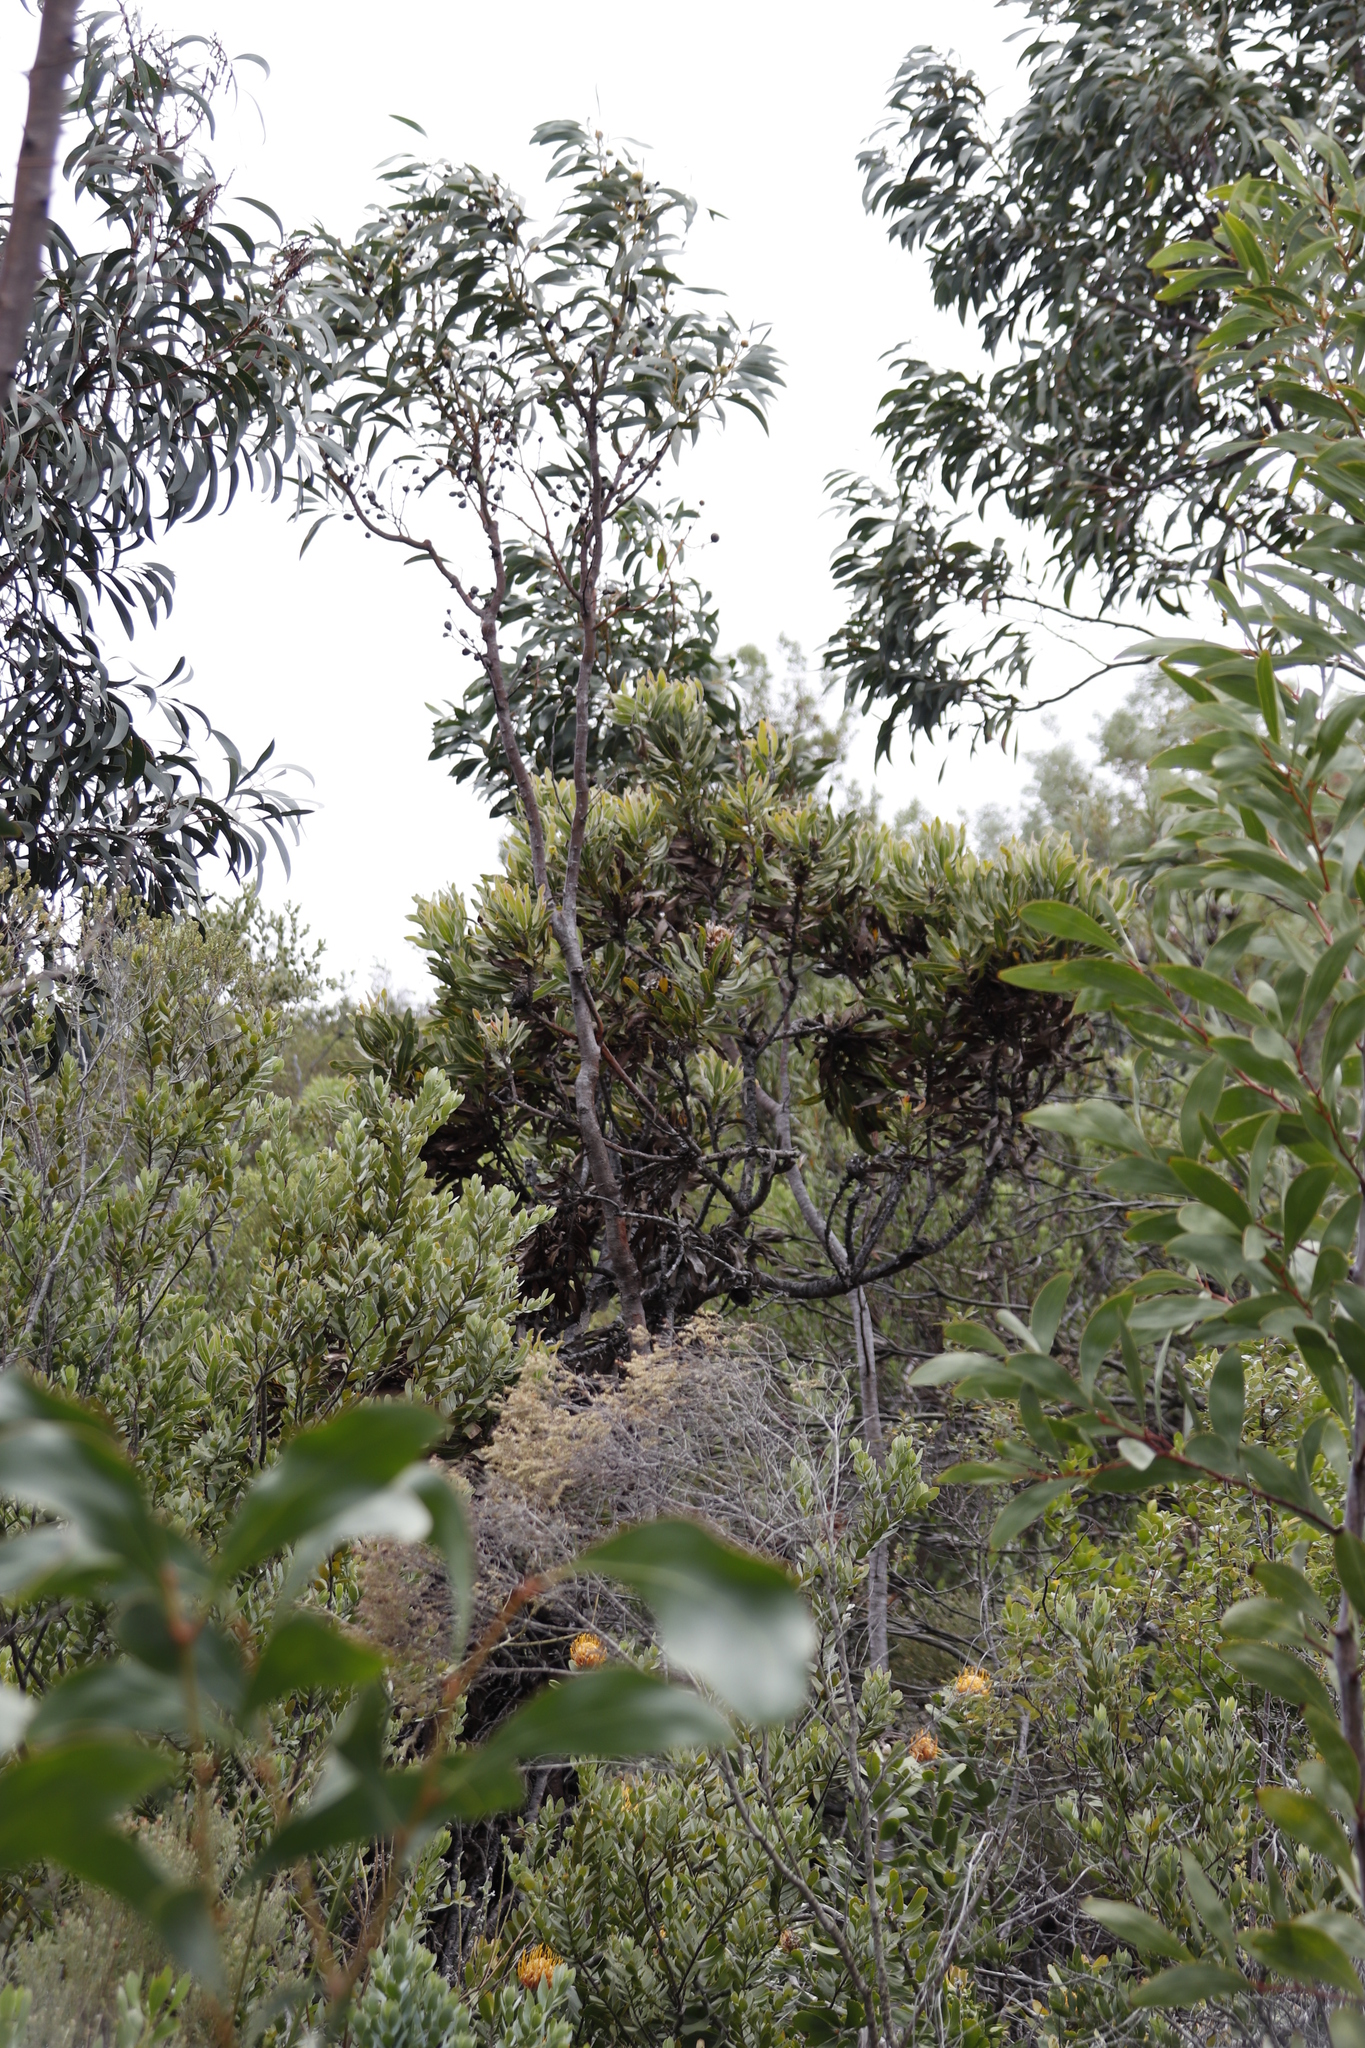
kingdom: Plantae
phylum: Tracheophyta
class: Magnoliopsida
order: Proteales
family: Proteaceae
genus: Protea
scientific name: Protea neriifolia
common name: Blue sugarbush
